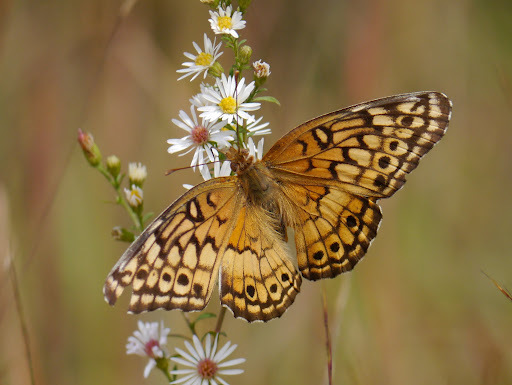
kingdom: Animalia
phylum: Arthropoda
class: Insecta
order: Lepidoptera
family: Nymphalidae
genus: Euptoieta
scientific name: Euptoieta claudia
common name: Variegated fritillary
